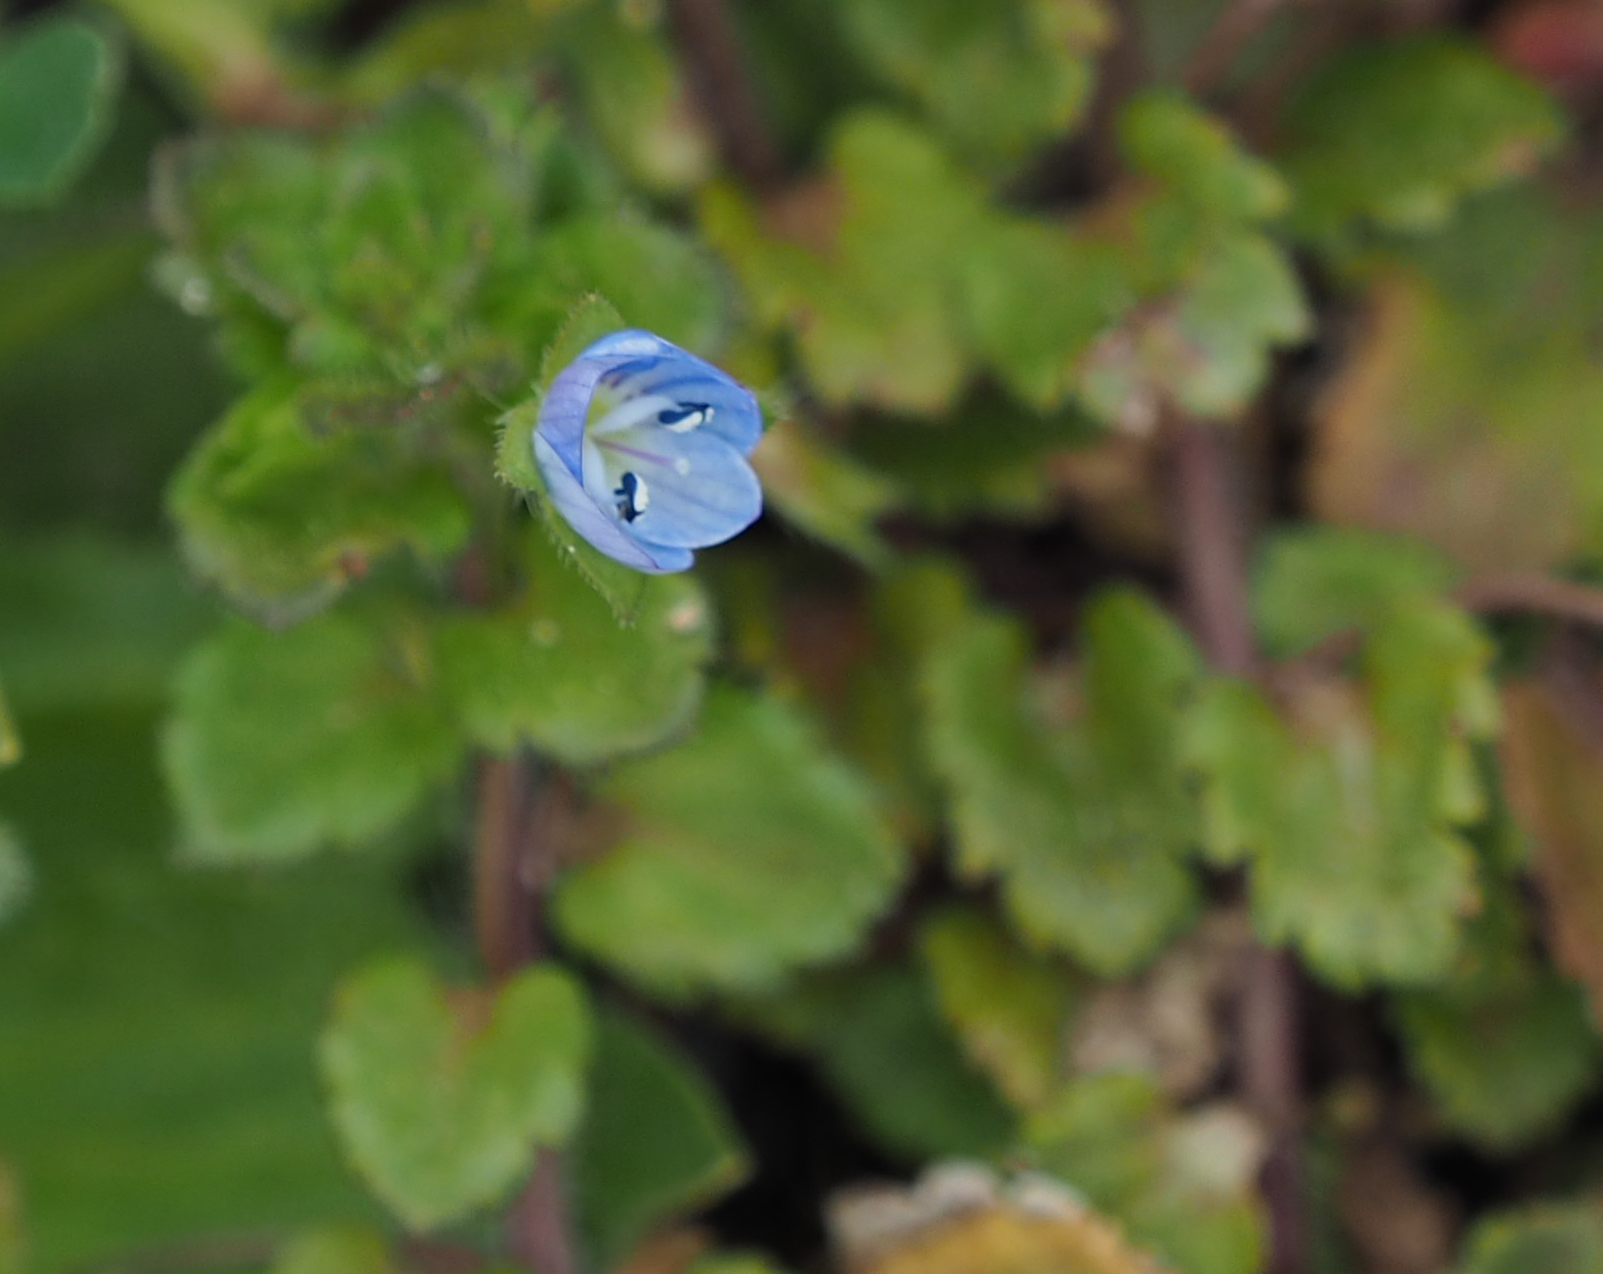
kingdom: Plantae
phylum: Tracheophyta
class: Magnoliopsida
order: Lamiales
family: Plantaginaceae
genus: Veronica
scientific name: Veronica persica
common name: Common field-speedwell
